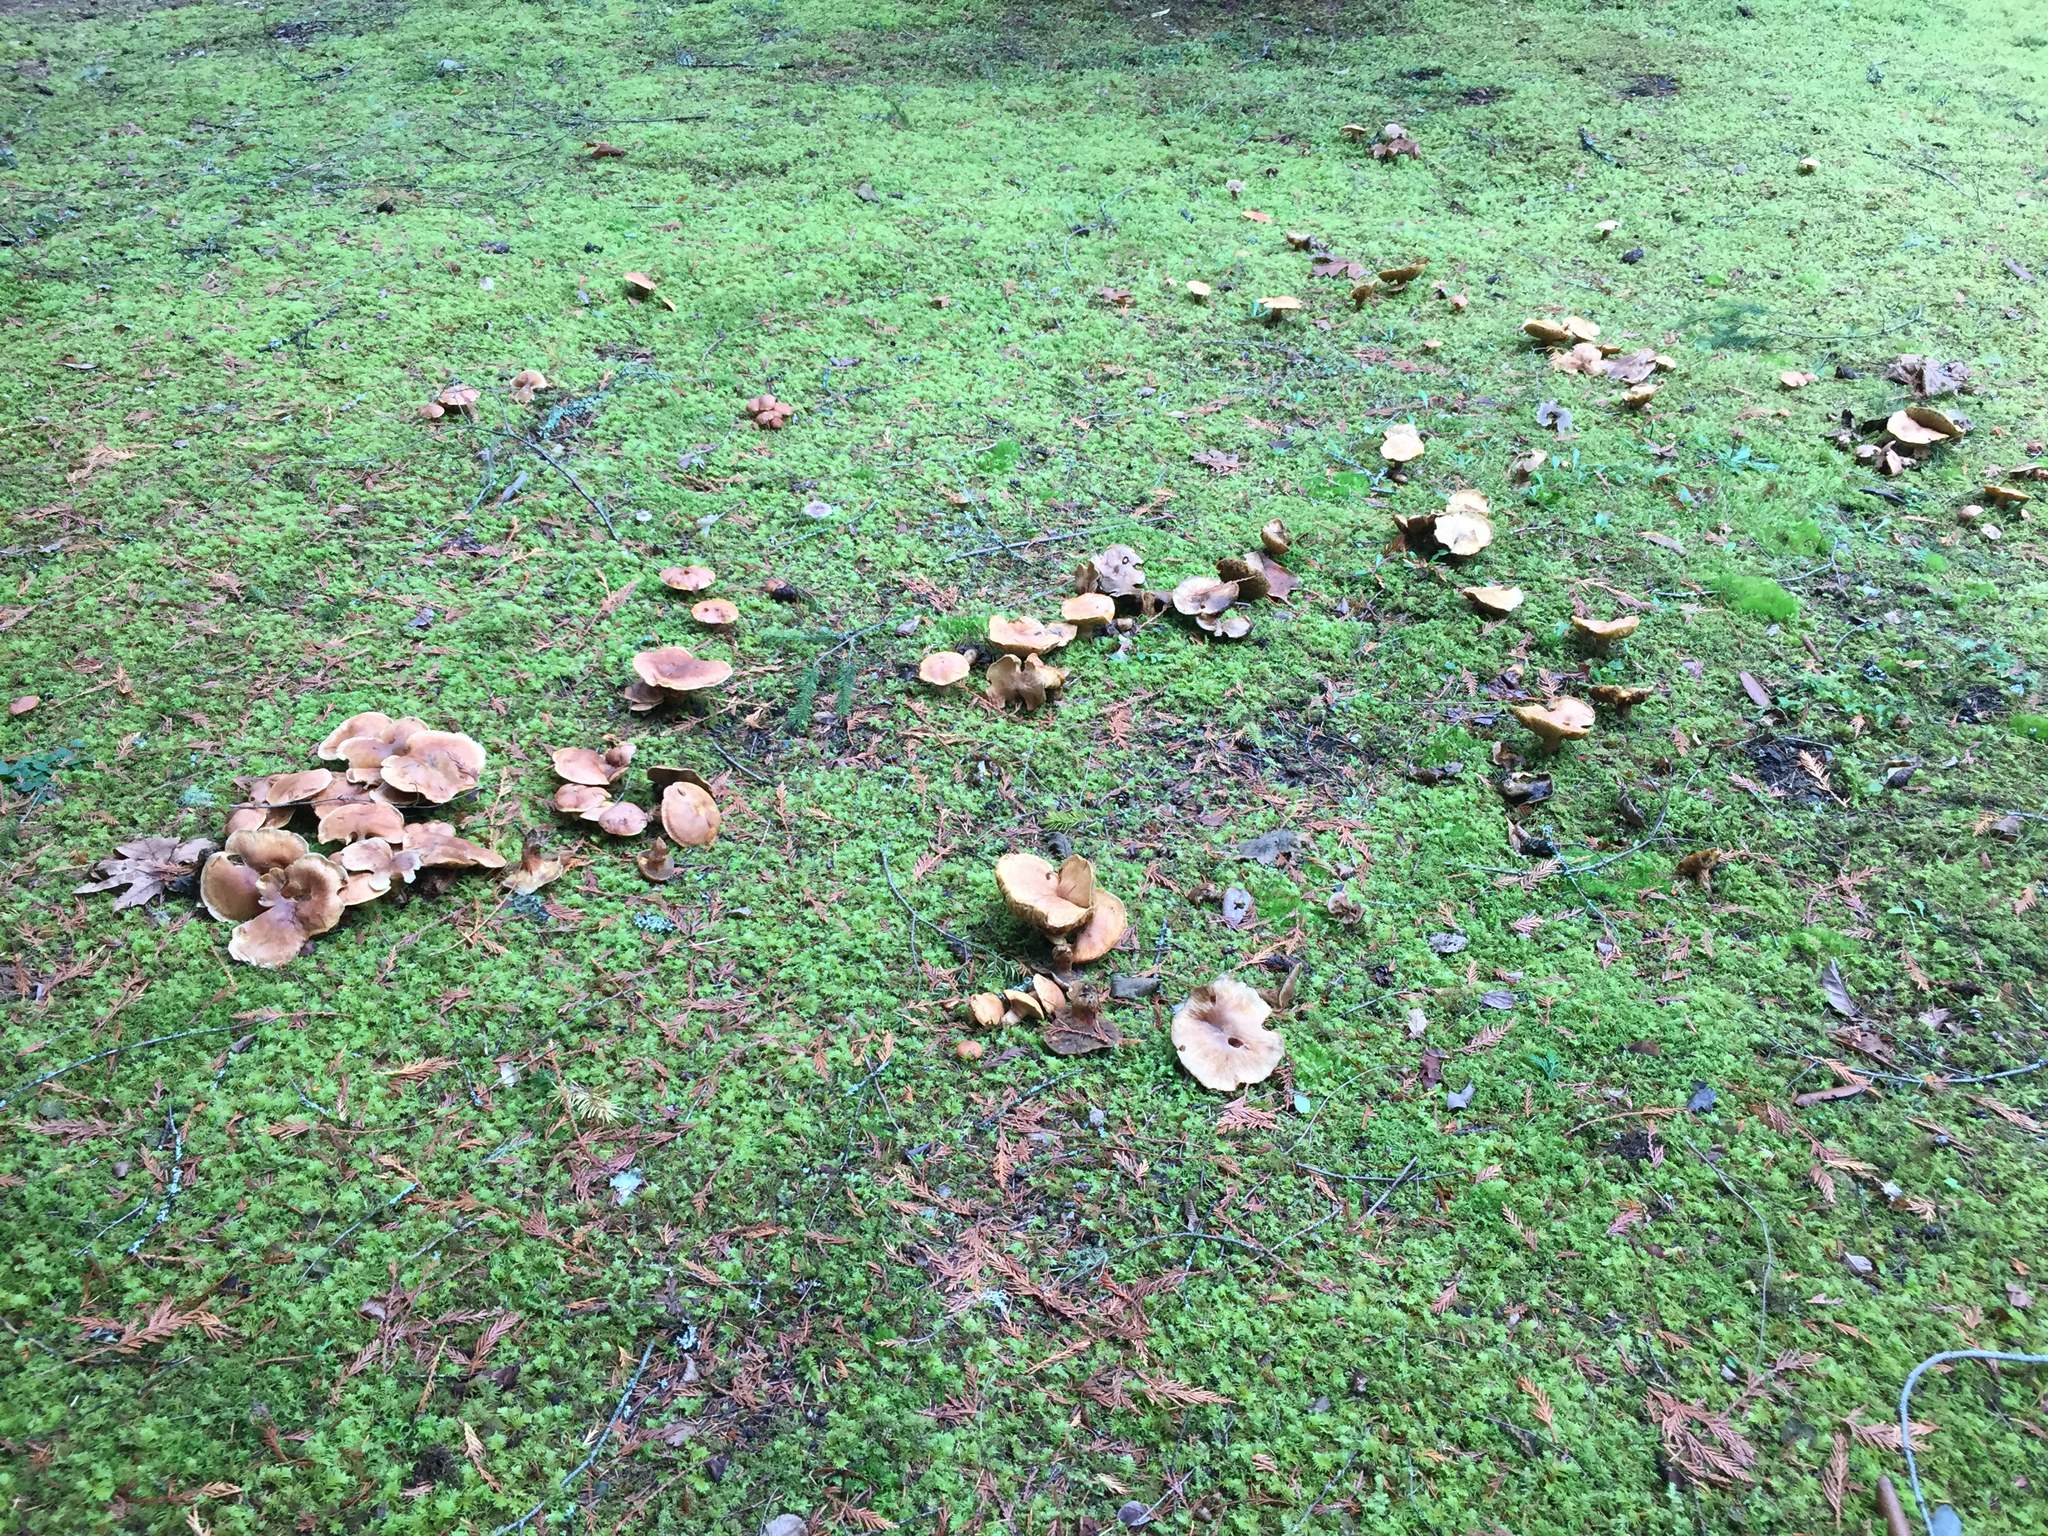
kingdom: Fungi
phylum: Basidiomycota
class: Agaricomycetes
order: Boletales
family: Suillaceae
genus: Suillus
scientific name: Suillus caerulescens
